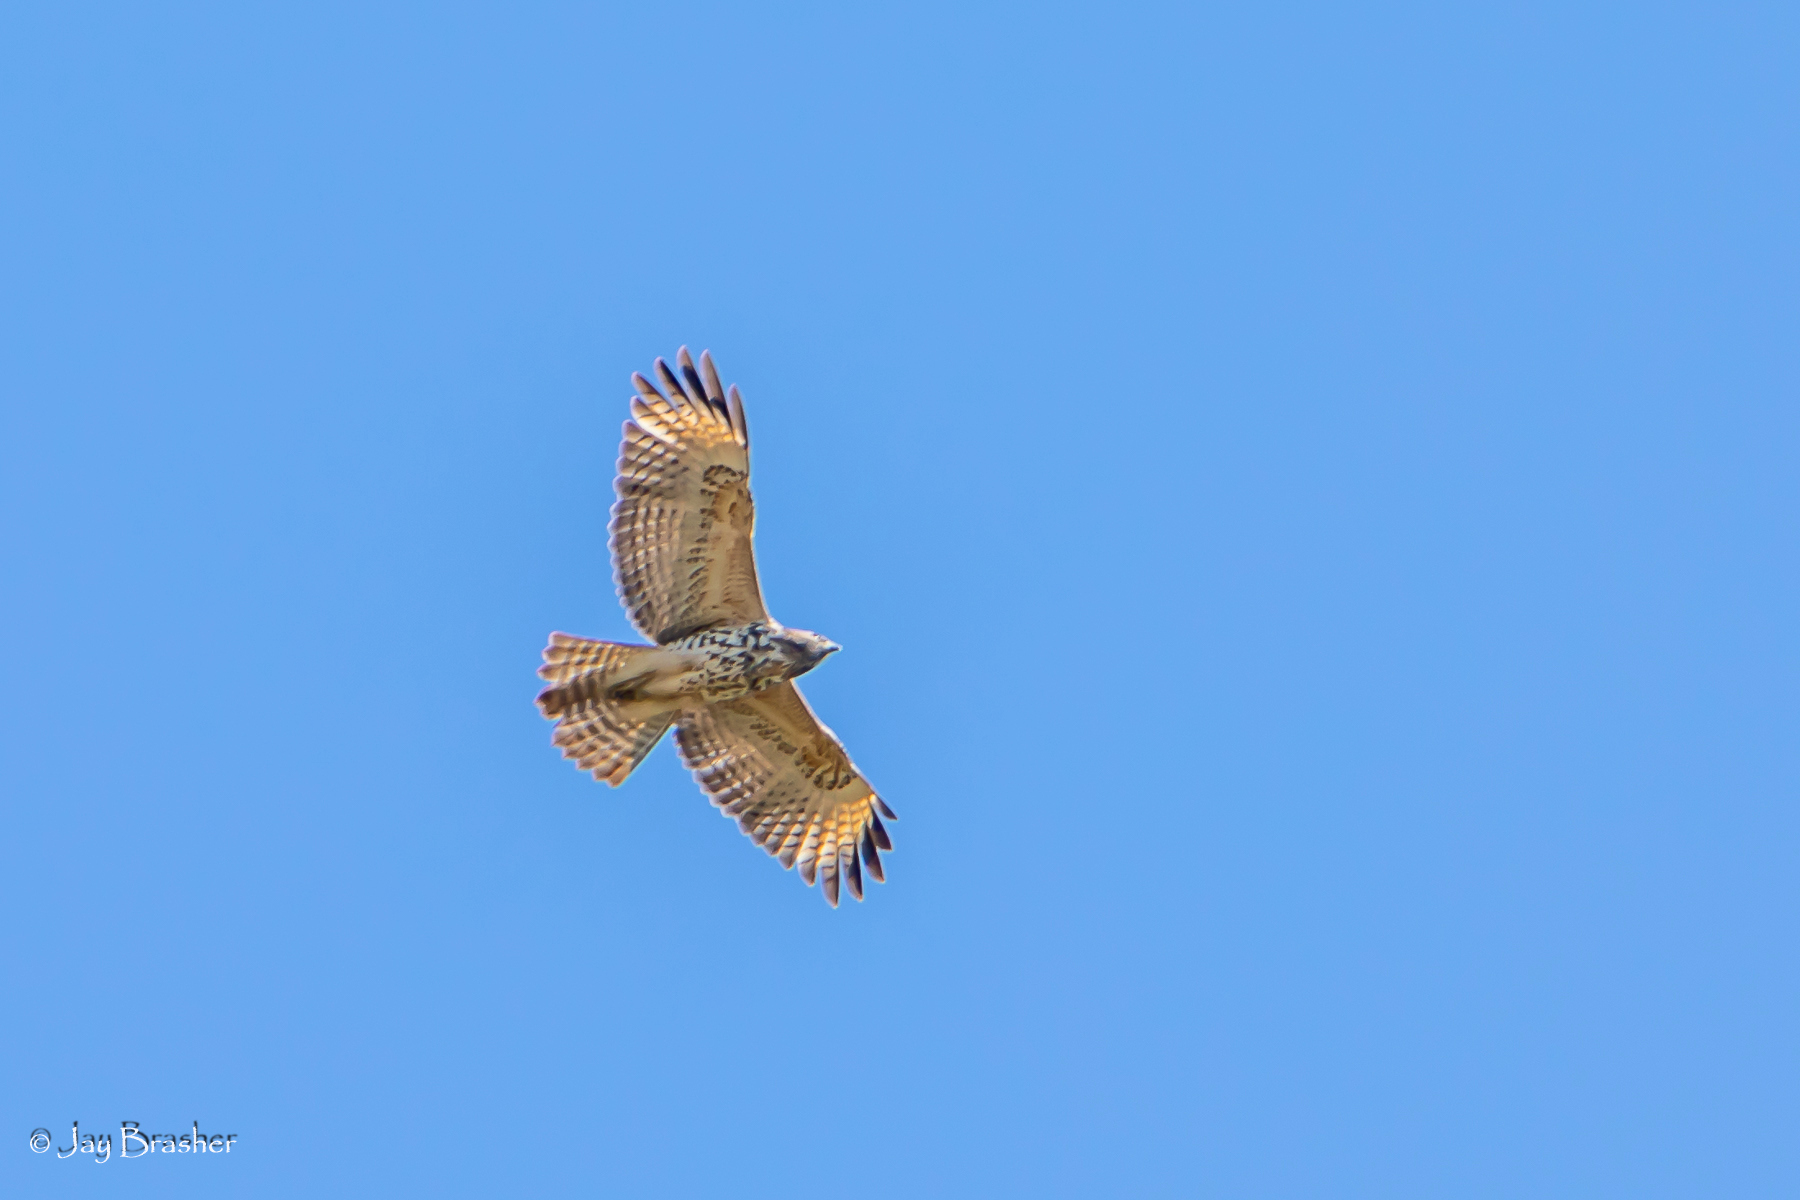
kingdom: Animalia
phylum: Chordata
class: Aves
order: Accipitriformes
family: Accipitridae
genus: Buteo
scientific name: Buteo lineatus
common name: Red-shouldered hawk
